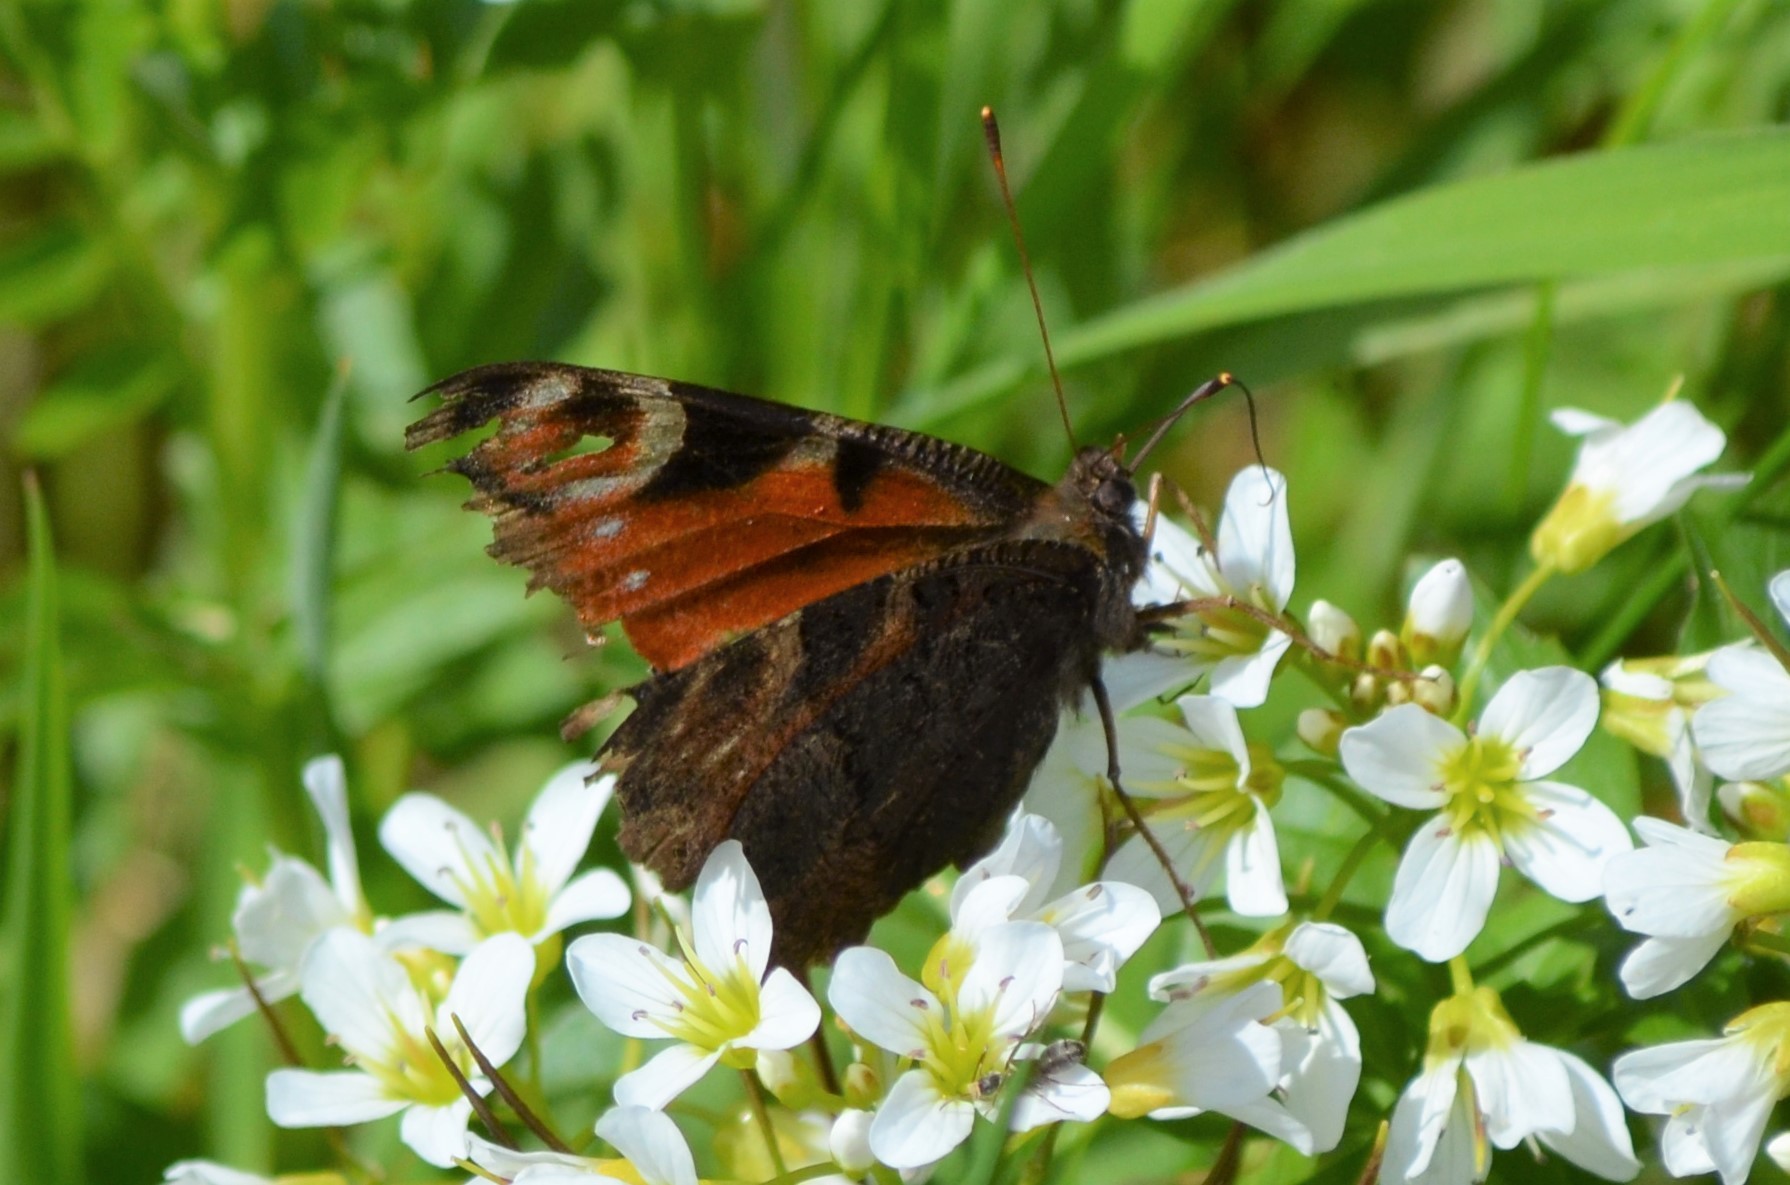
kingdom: Animalia
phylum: Arthropoda
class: Insecta
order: Lepidoptera
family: Nymphalidae
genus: Aglais
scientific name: Aglais io
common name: Peacock
